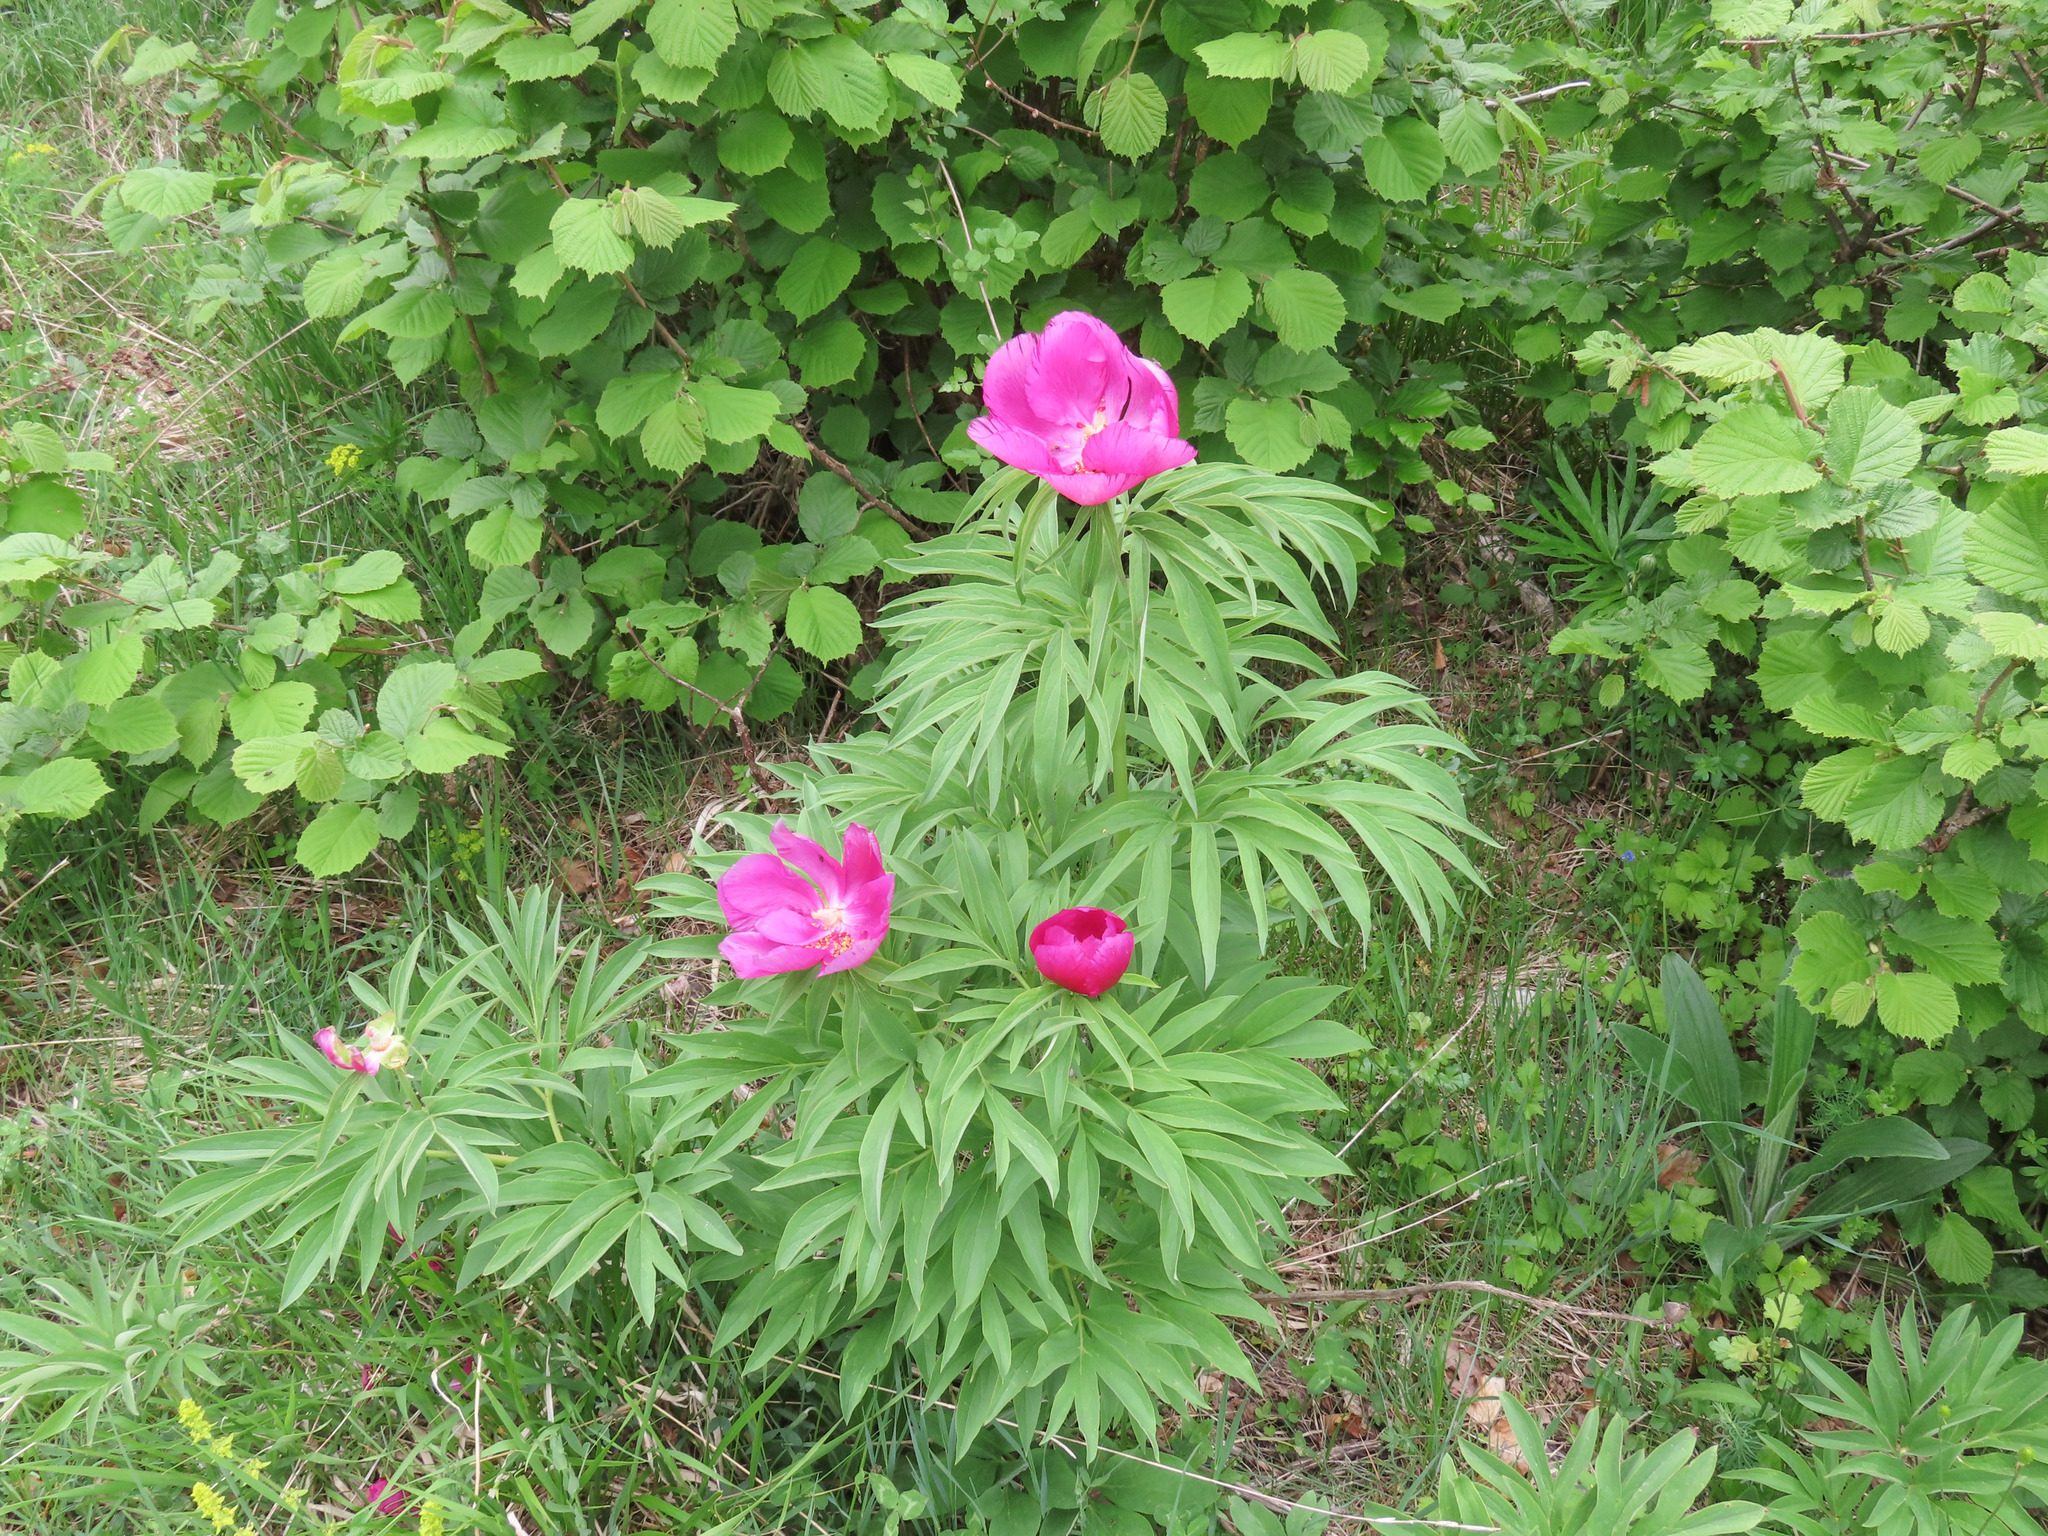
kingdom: Plantae
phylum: Tracheophyta
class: Magnoliopsida
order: Saxifragales
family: Paeoniaceae
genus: Paeonia
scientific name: Paeonia officinalis
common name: Common peony
